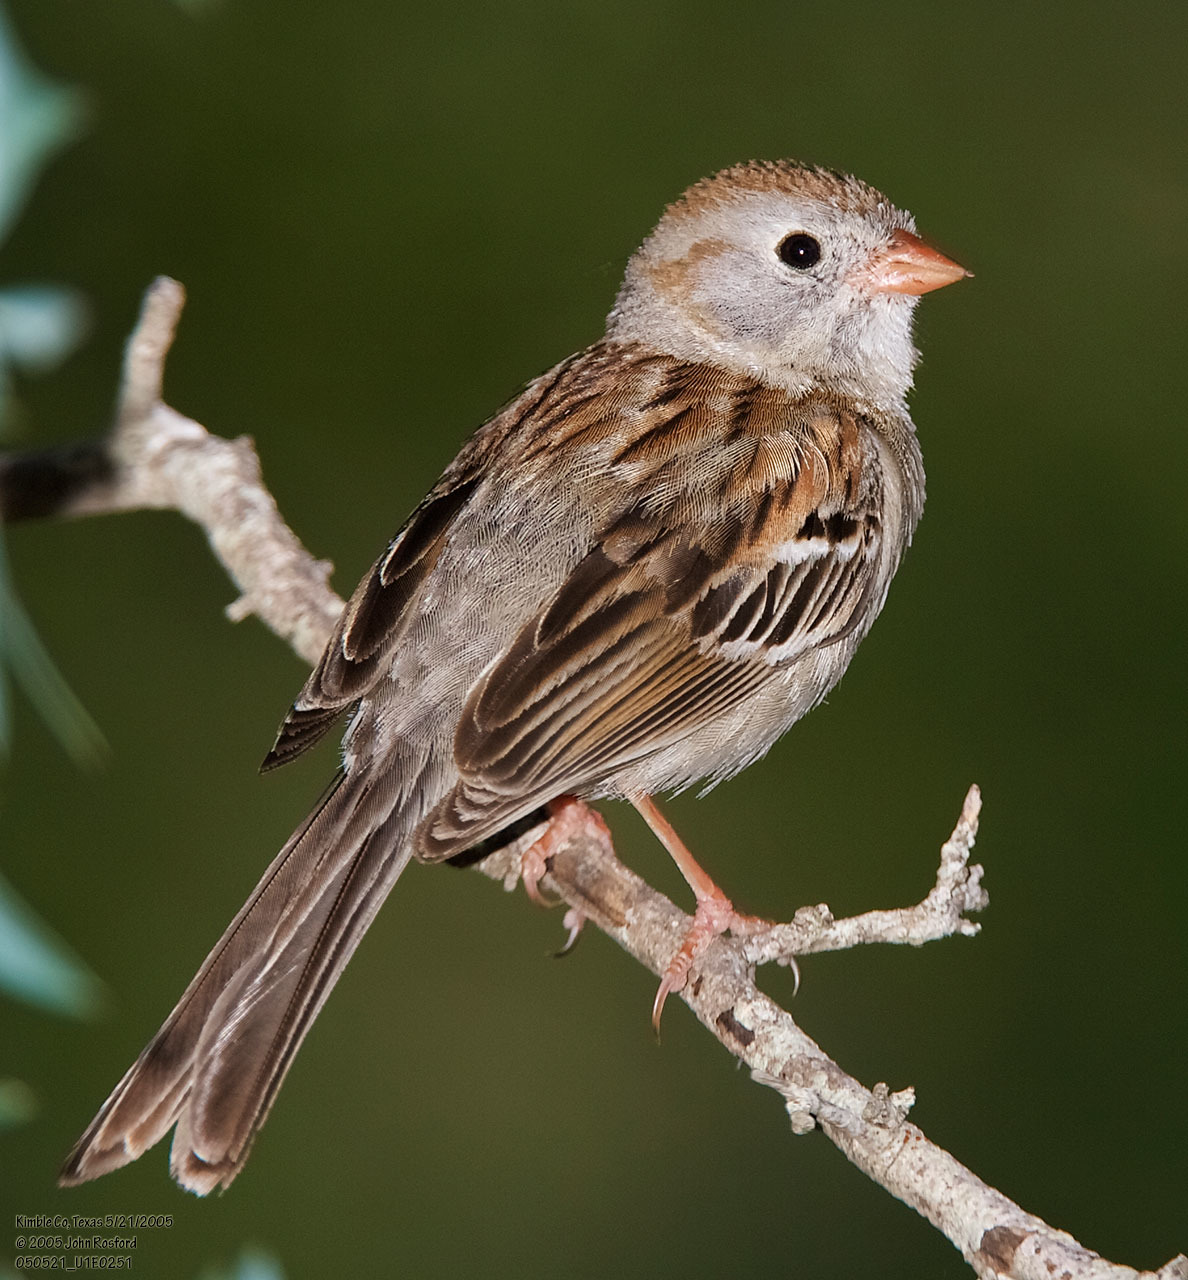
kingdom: Animalia
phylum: Chordata
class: Aves
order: Passeriformes
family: Passerellidae
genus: Spizella
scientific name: Spizella pusilla
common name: Field sparrow
